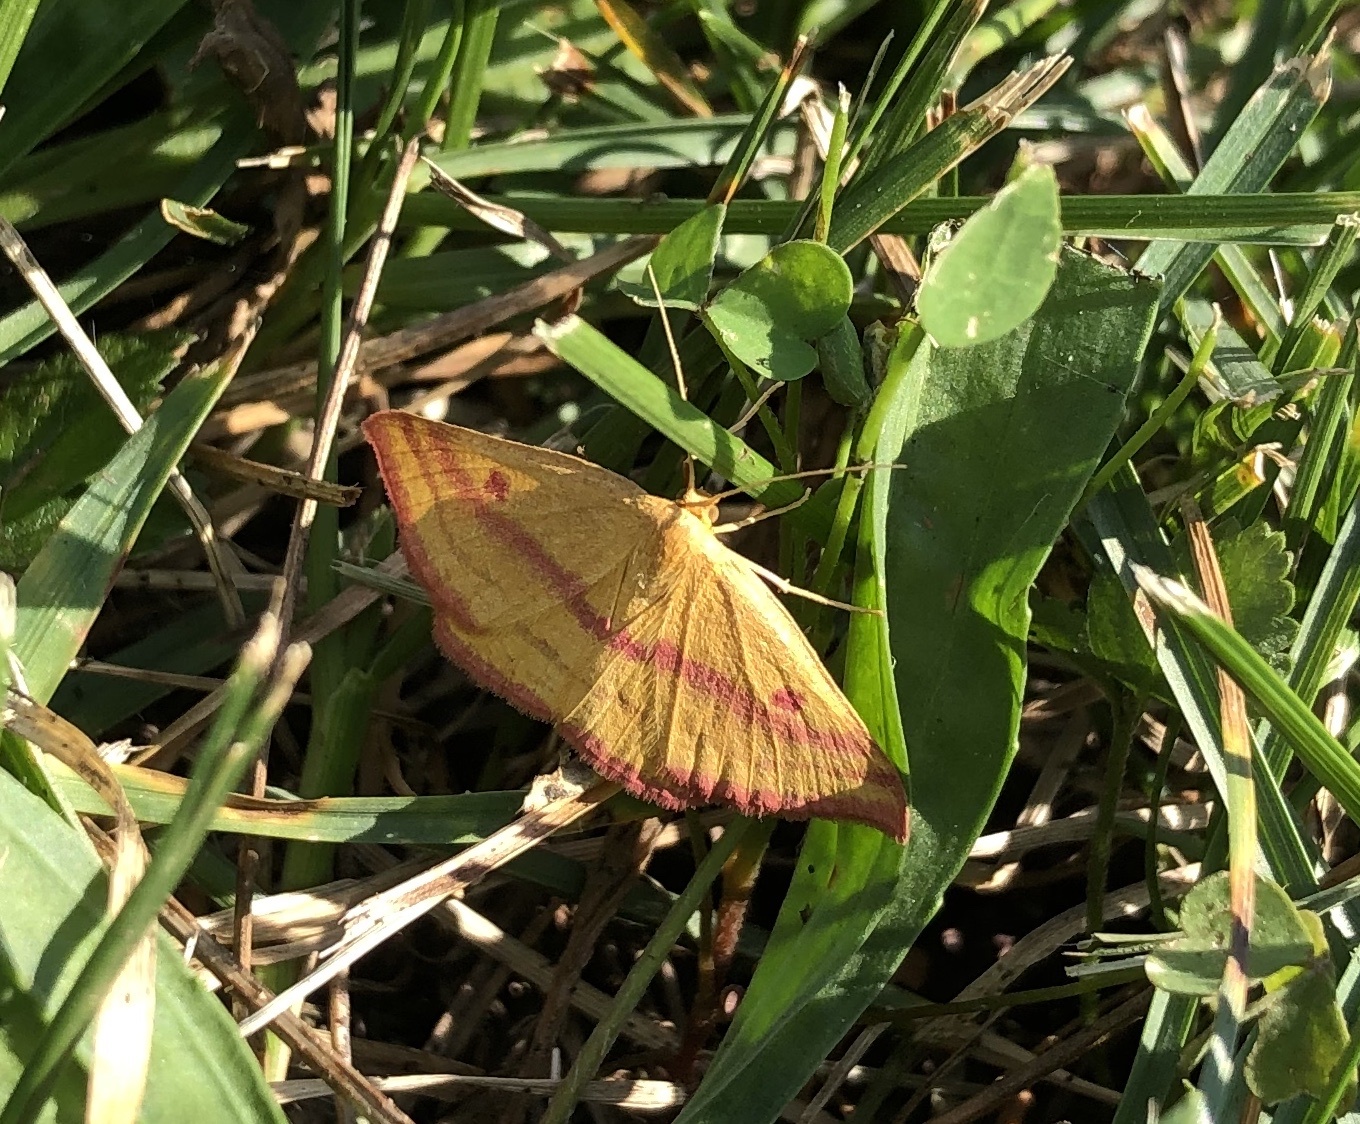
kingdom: Animalia
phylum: Arthropoda
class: Insecta
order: Lepidoptera
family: Geometridae
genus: Haematopis
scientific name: Haematopis grataria
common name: Chickweed geometer
